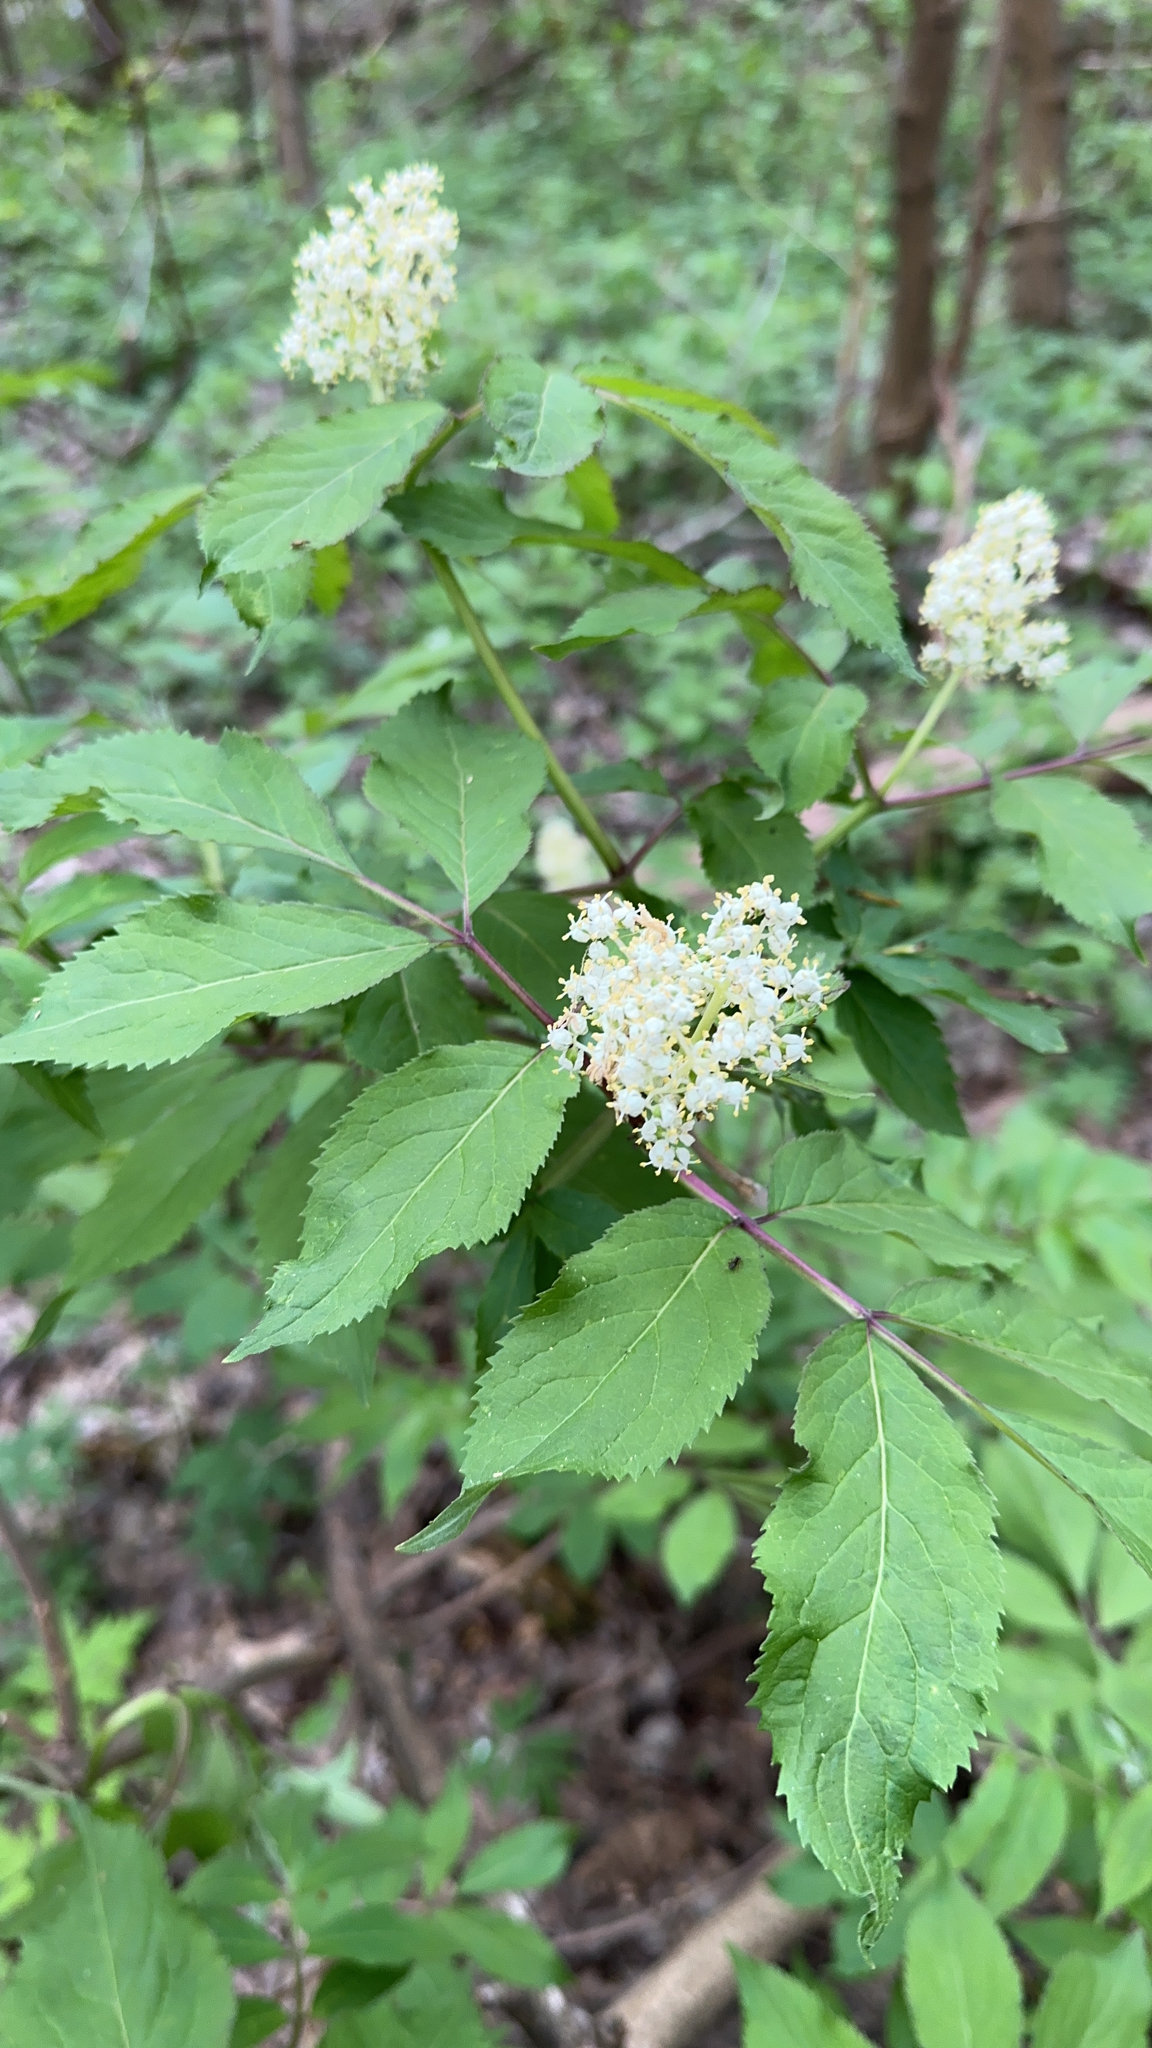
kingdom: Plantae
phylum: Tracheophyta
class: Magnoliopsida
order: Dipsacales
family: Viburnaceae
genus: Sambucus
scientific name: Sambucus racemosa
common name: Red-berried elder
